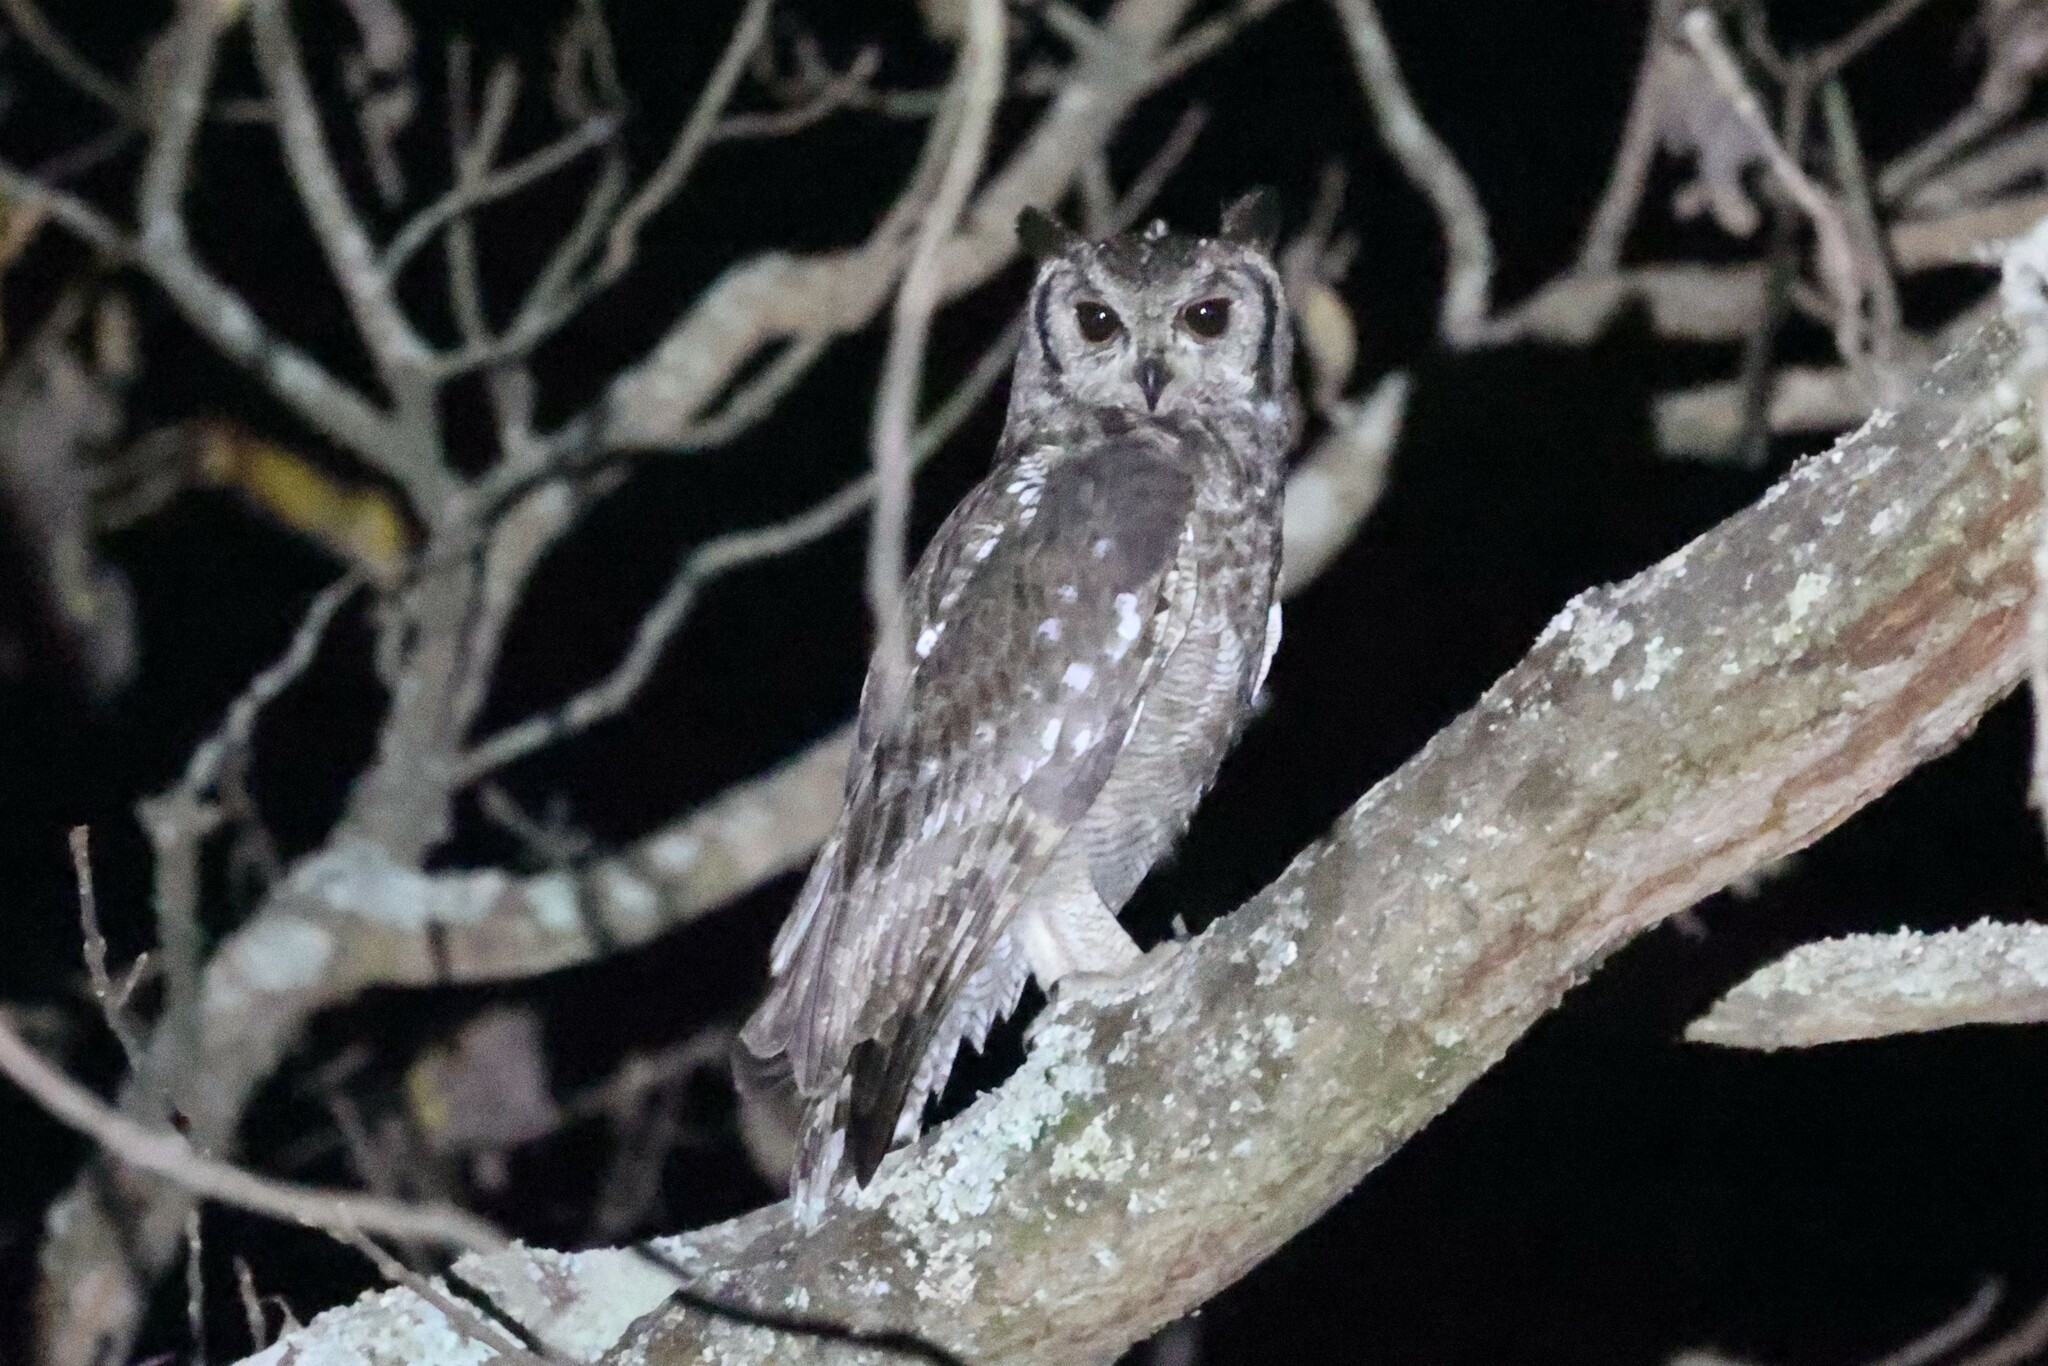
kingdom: Animalia
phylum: Chordata
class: Aves
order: Strigiformes
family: Strigidae
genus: Bubo
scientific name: Bubo cinerascens
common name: Greyish eagle-owl
